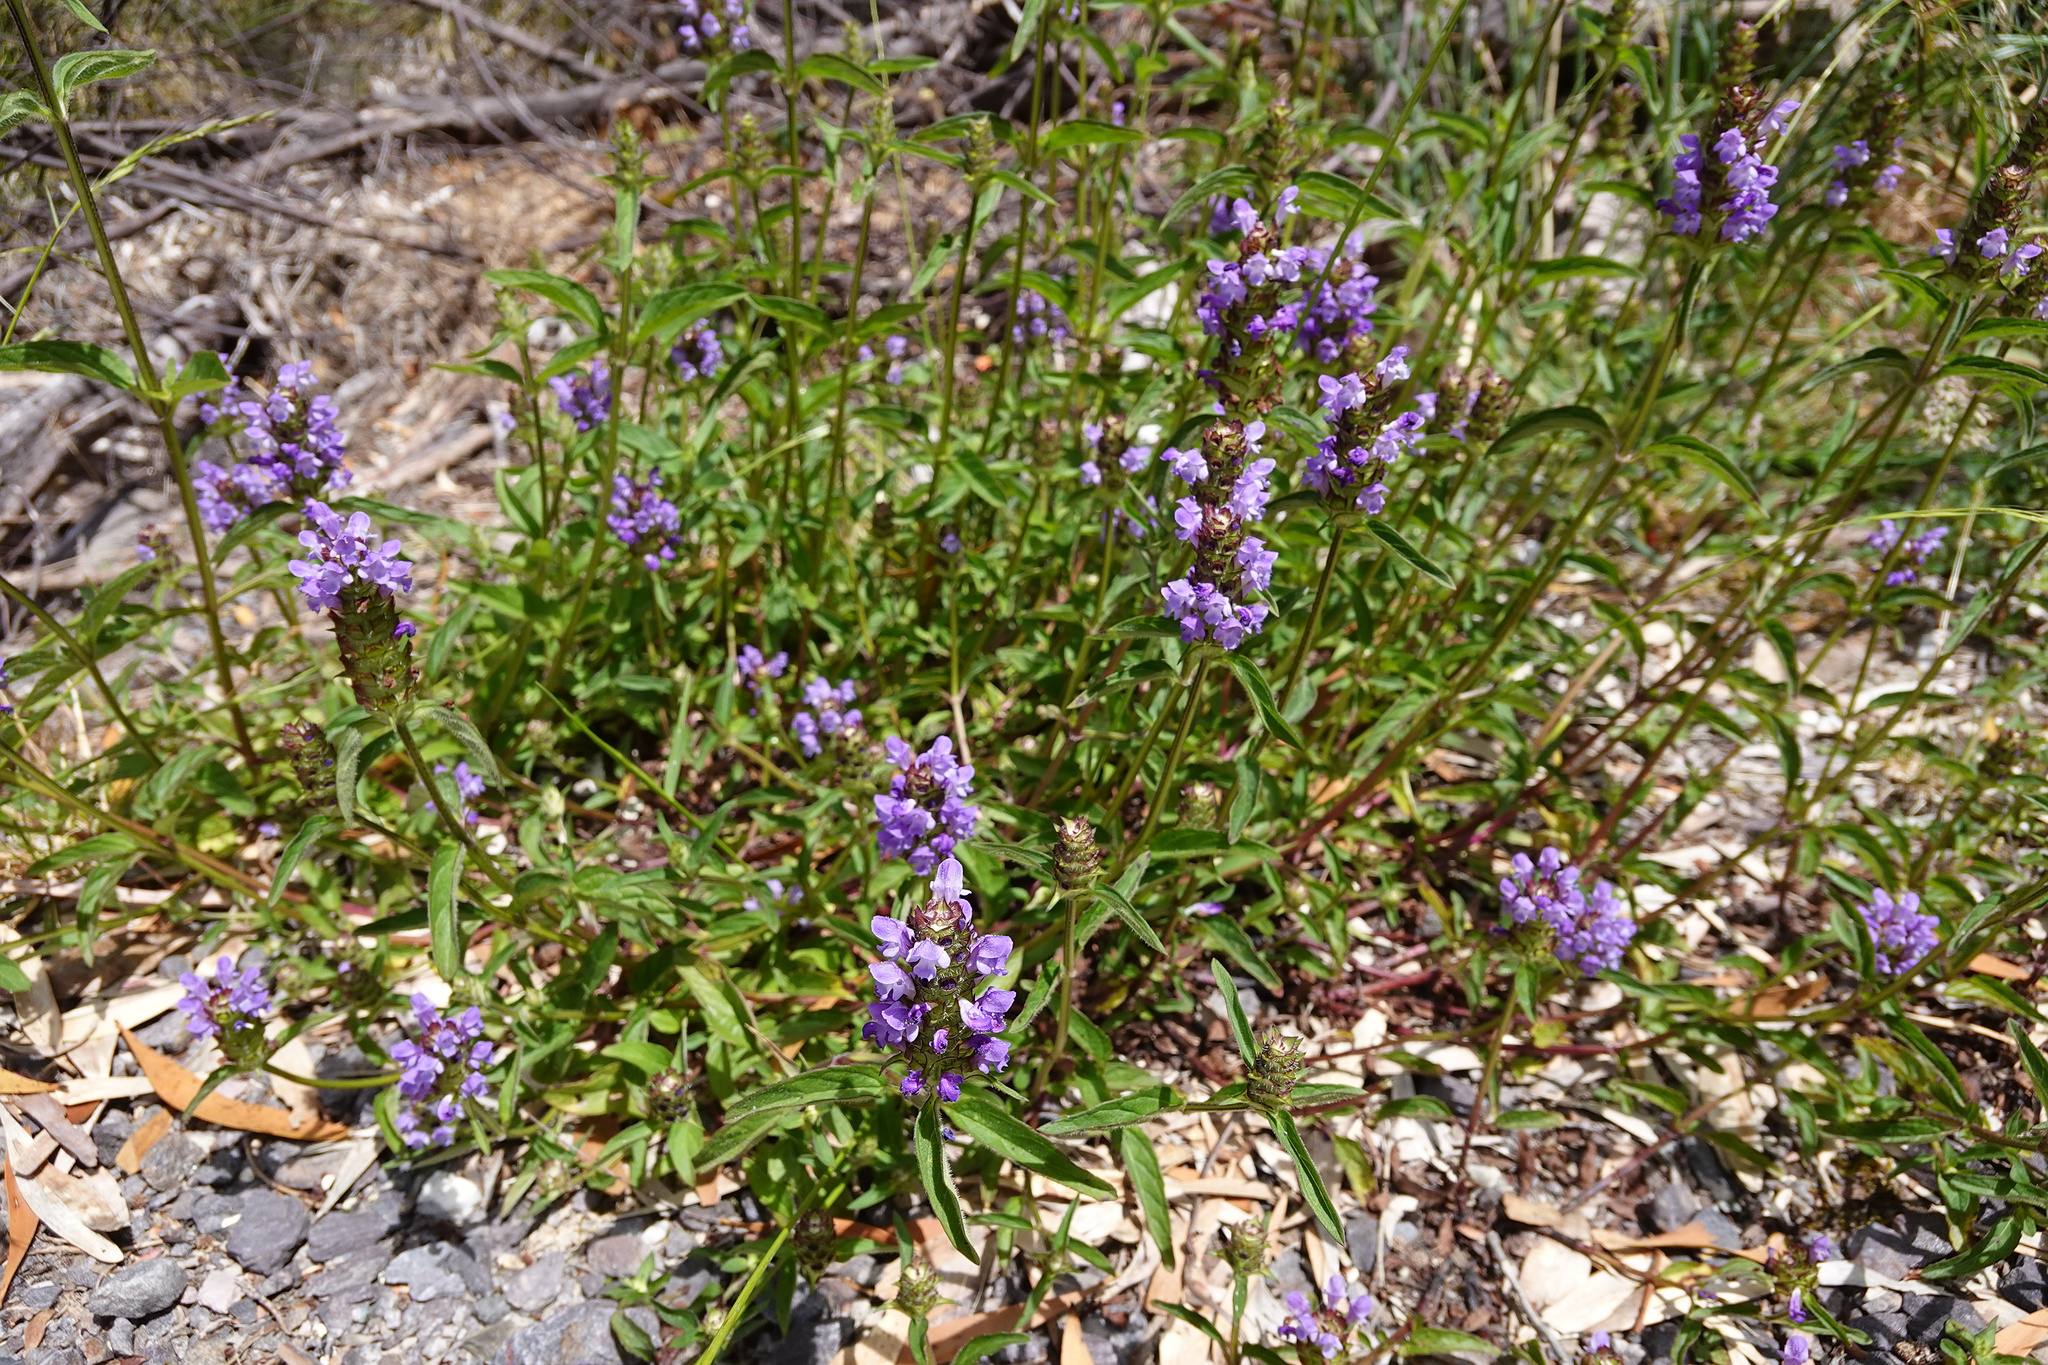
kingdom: Plantae
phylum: Tracheophyta
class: Magnoliopsida
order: Lamiales
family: Lamiaceae
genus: Prunella
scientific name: Prunella vulgaris
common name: Heal-all
